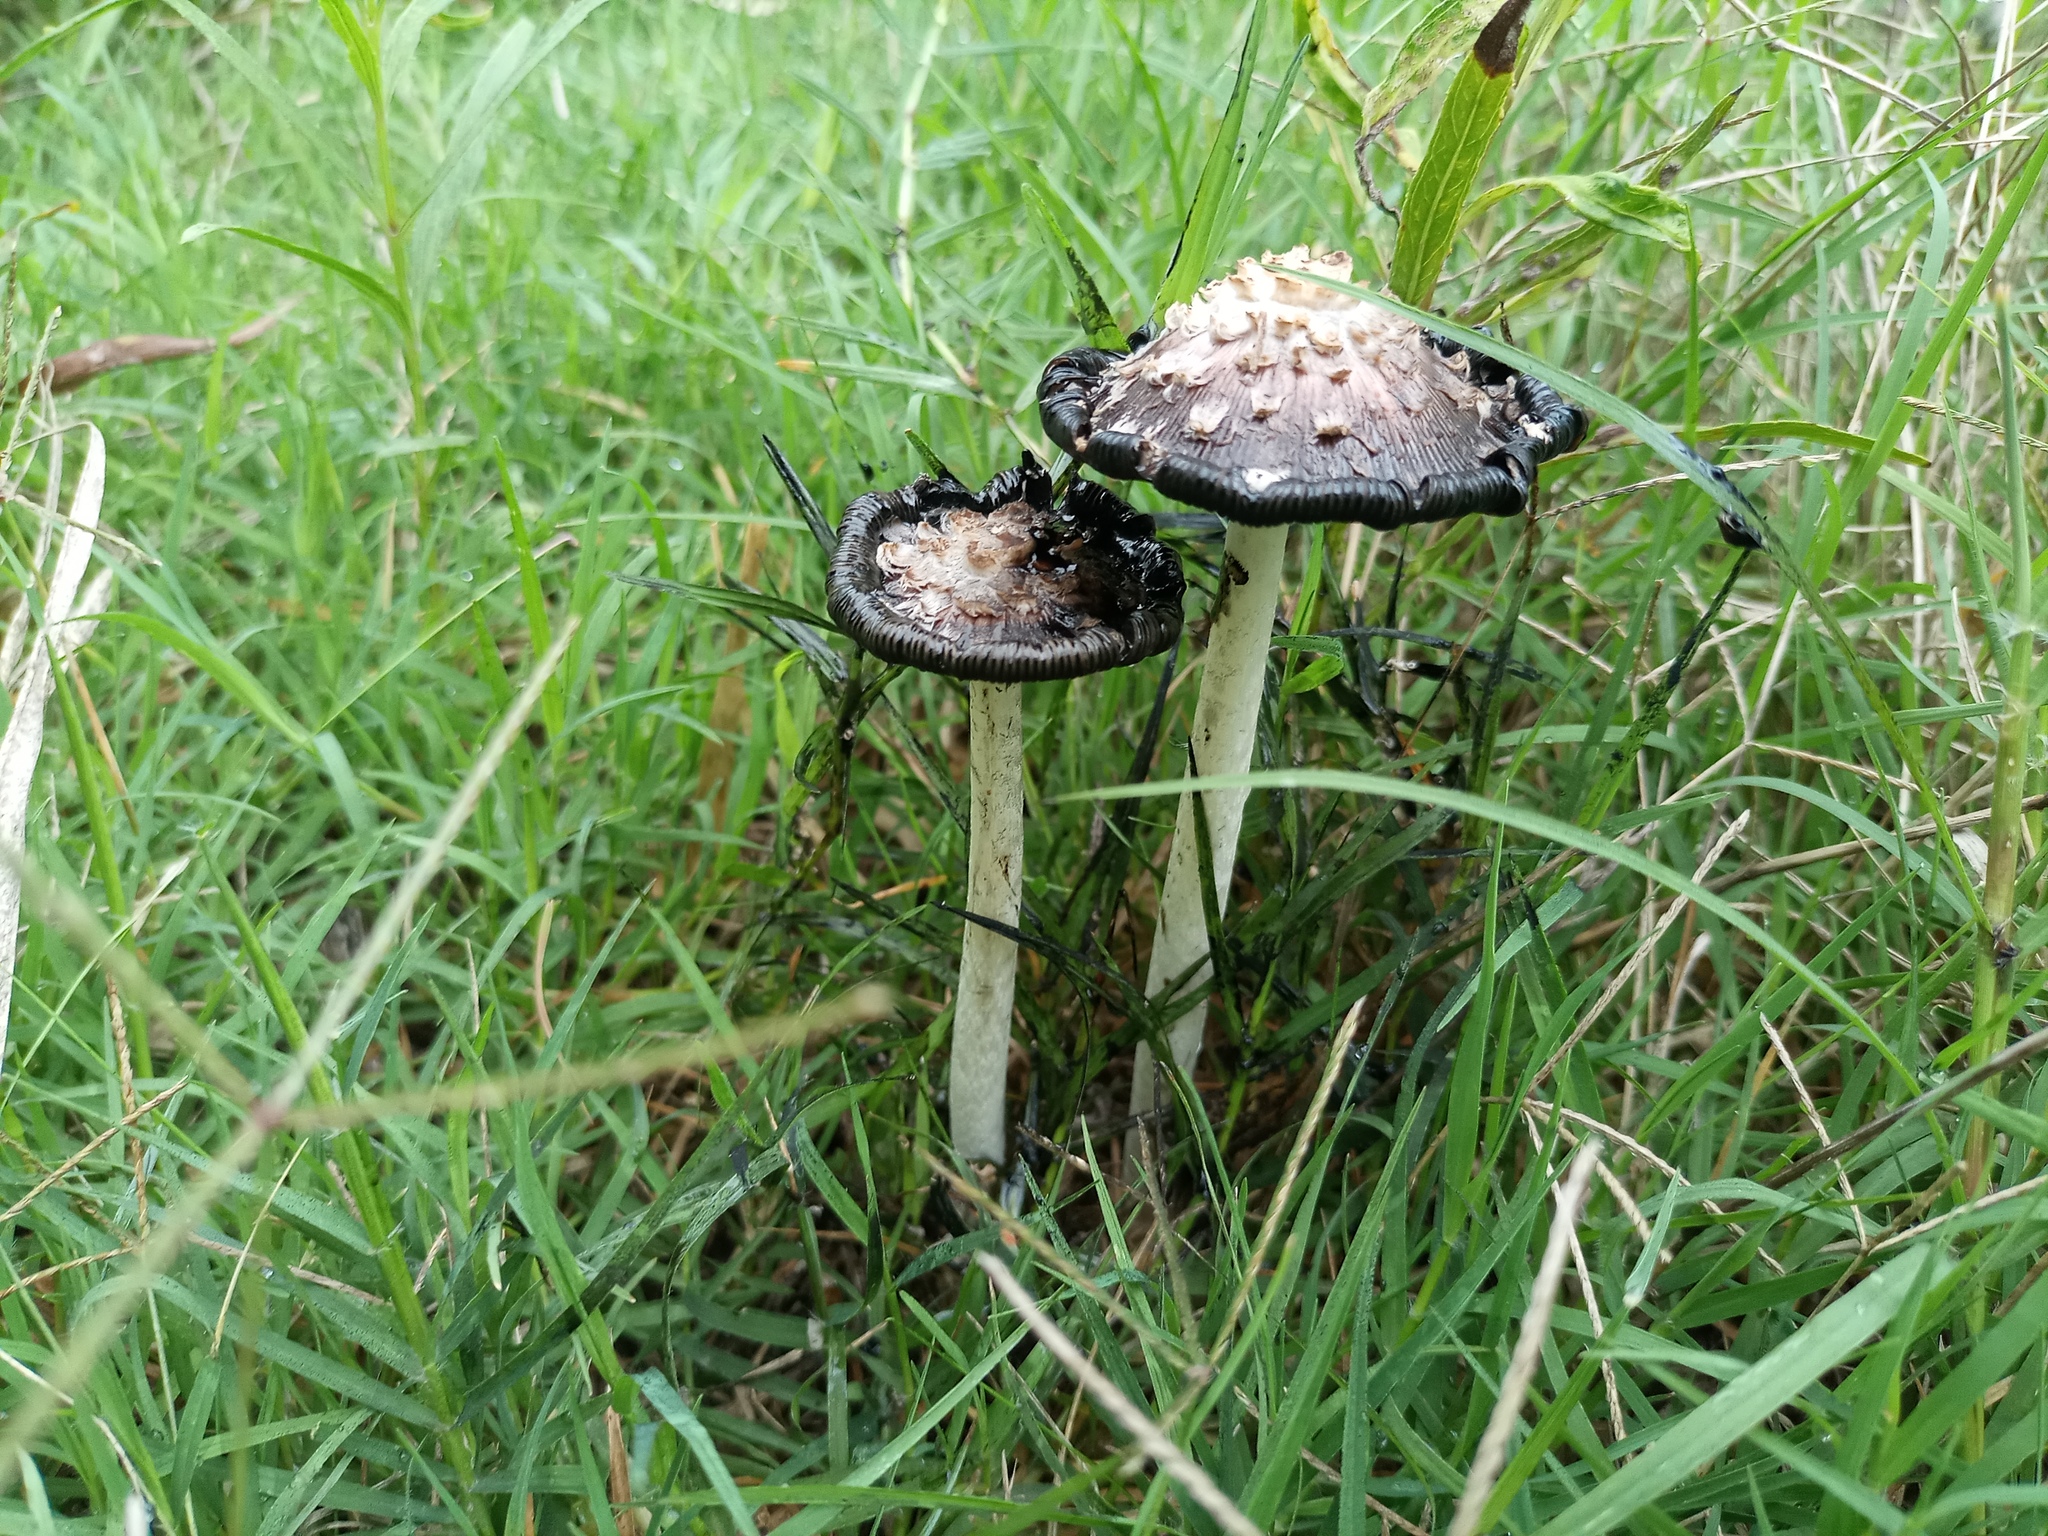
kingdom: Fungi
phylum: Basidiomycota
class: Agaricomycetes
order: Agaricales
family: Agaricaceae
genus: Coprinus
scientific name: Coprinus comatus
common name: Lawyer's wig
